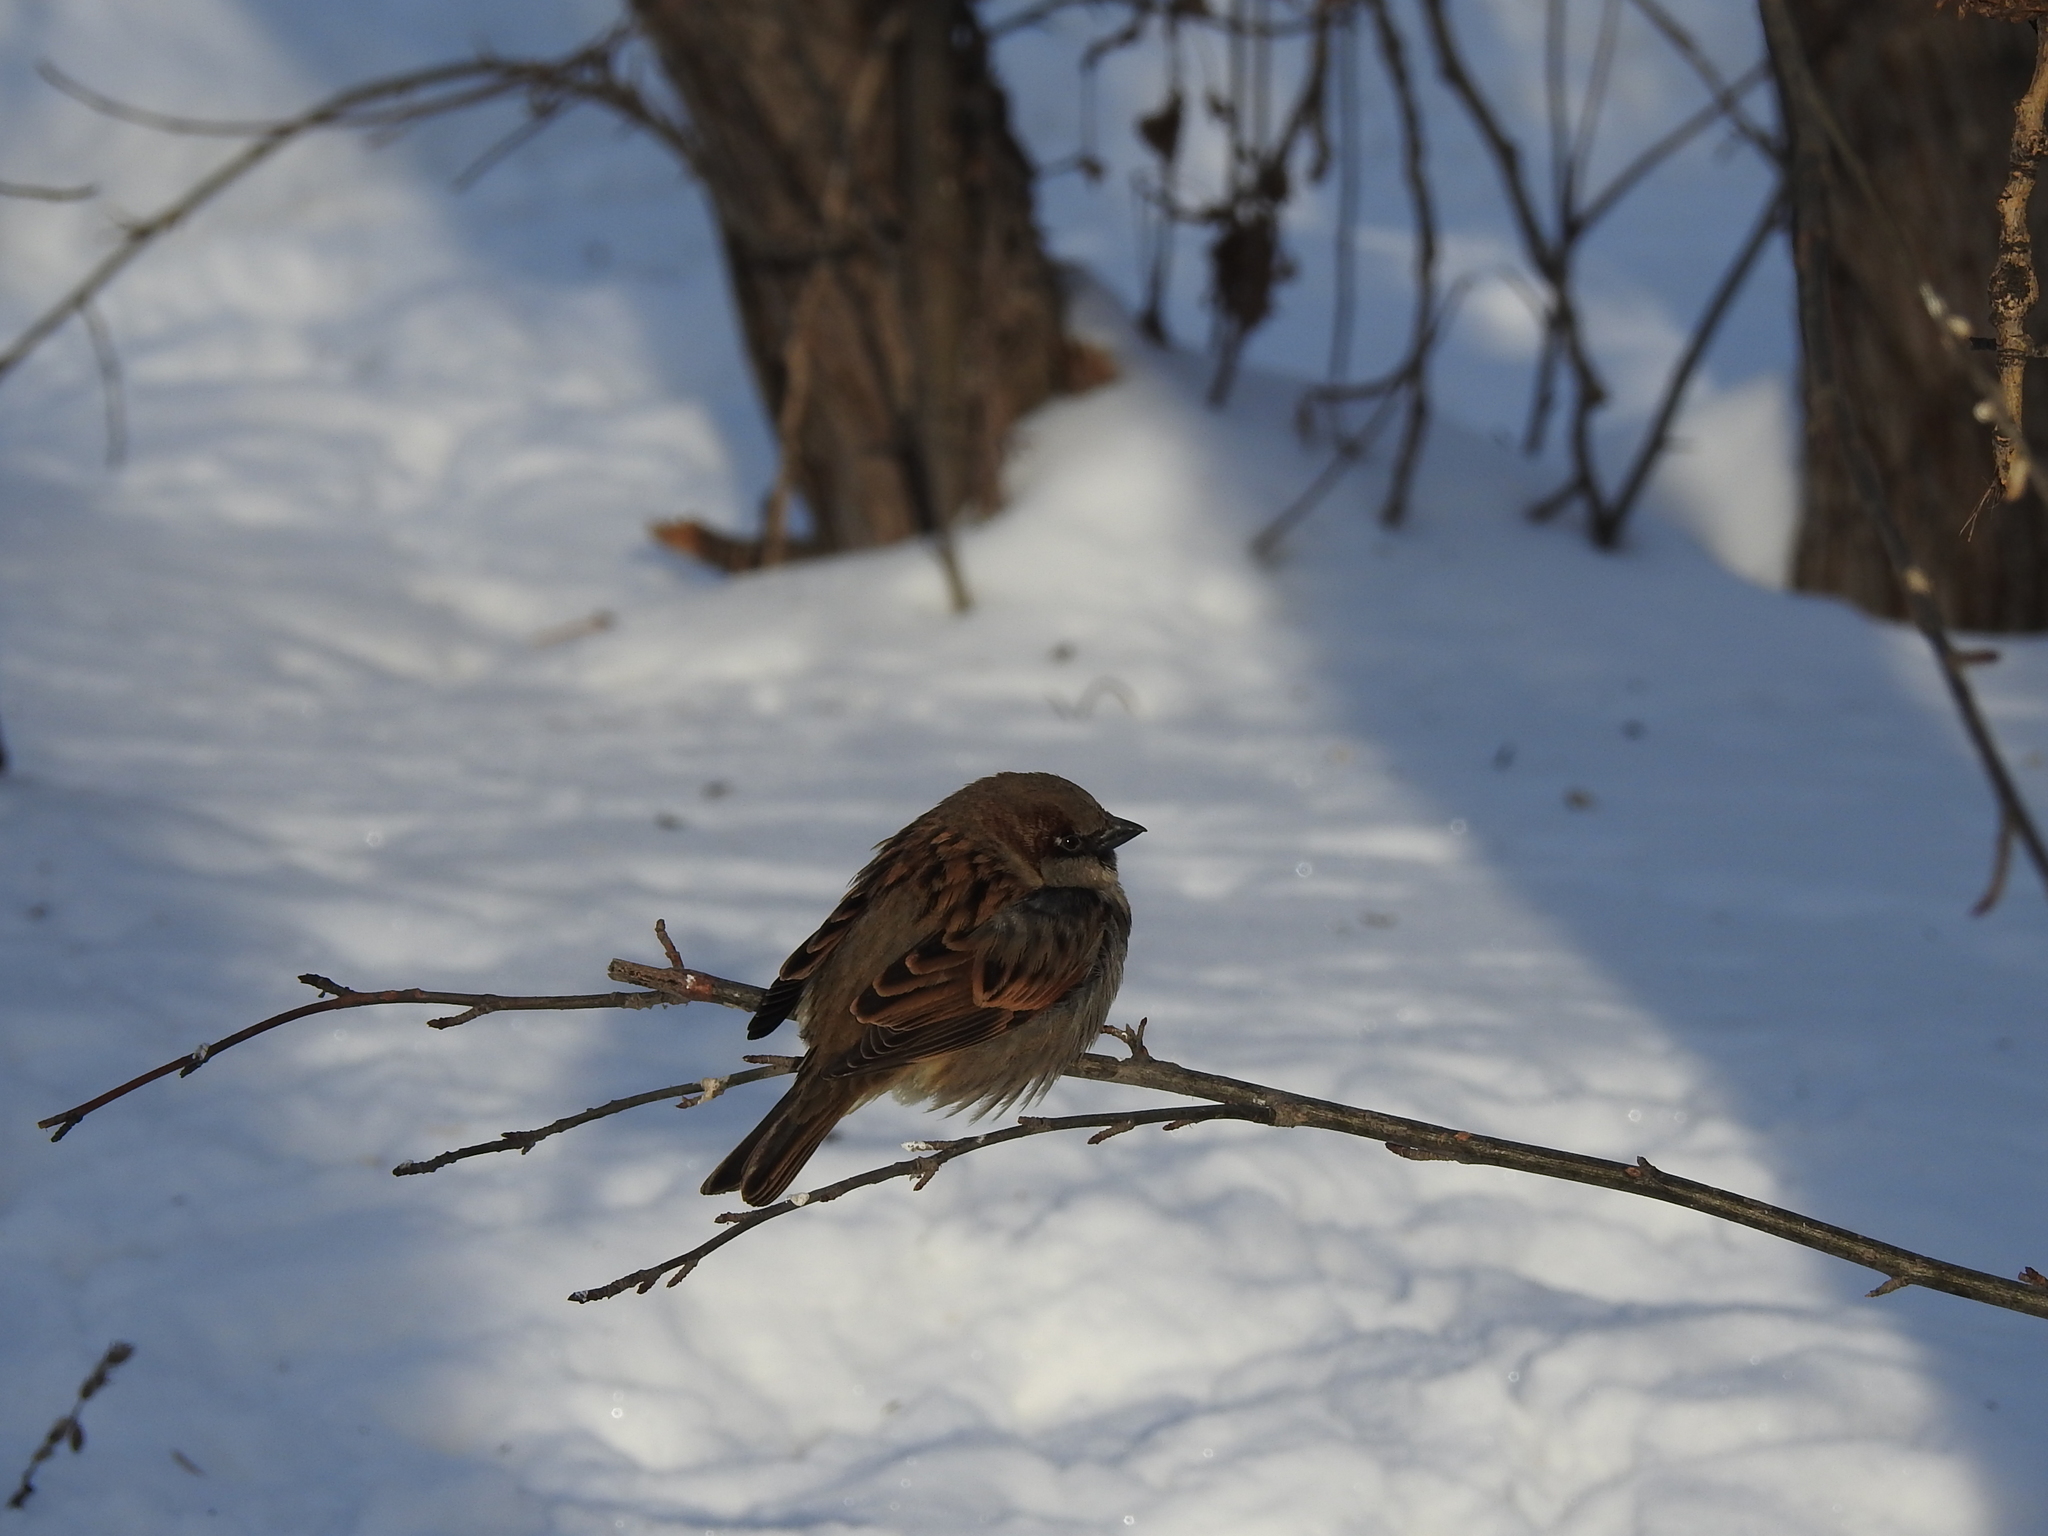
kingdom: Animalia
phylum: Chordata
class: Aves
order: Passeriformes
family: Passeridae
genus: Passer
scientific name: Passer domesticus
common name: House sparrow
